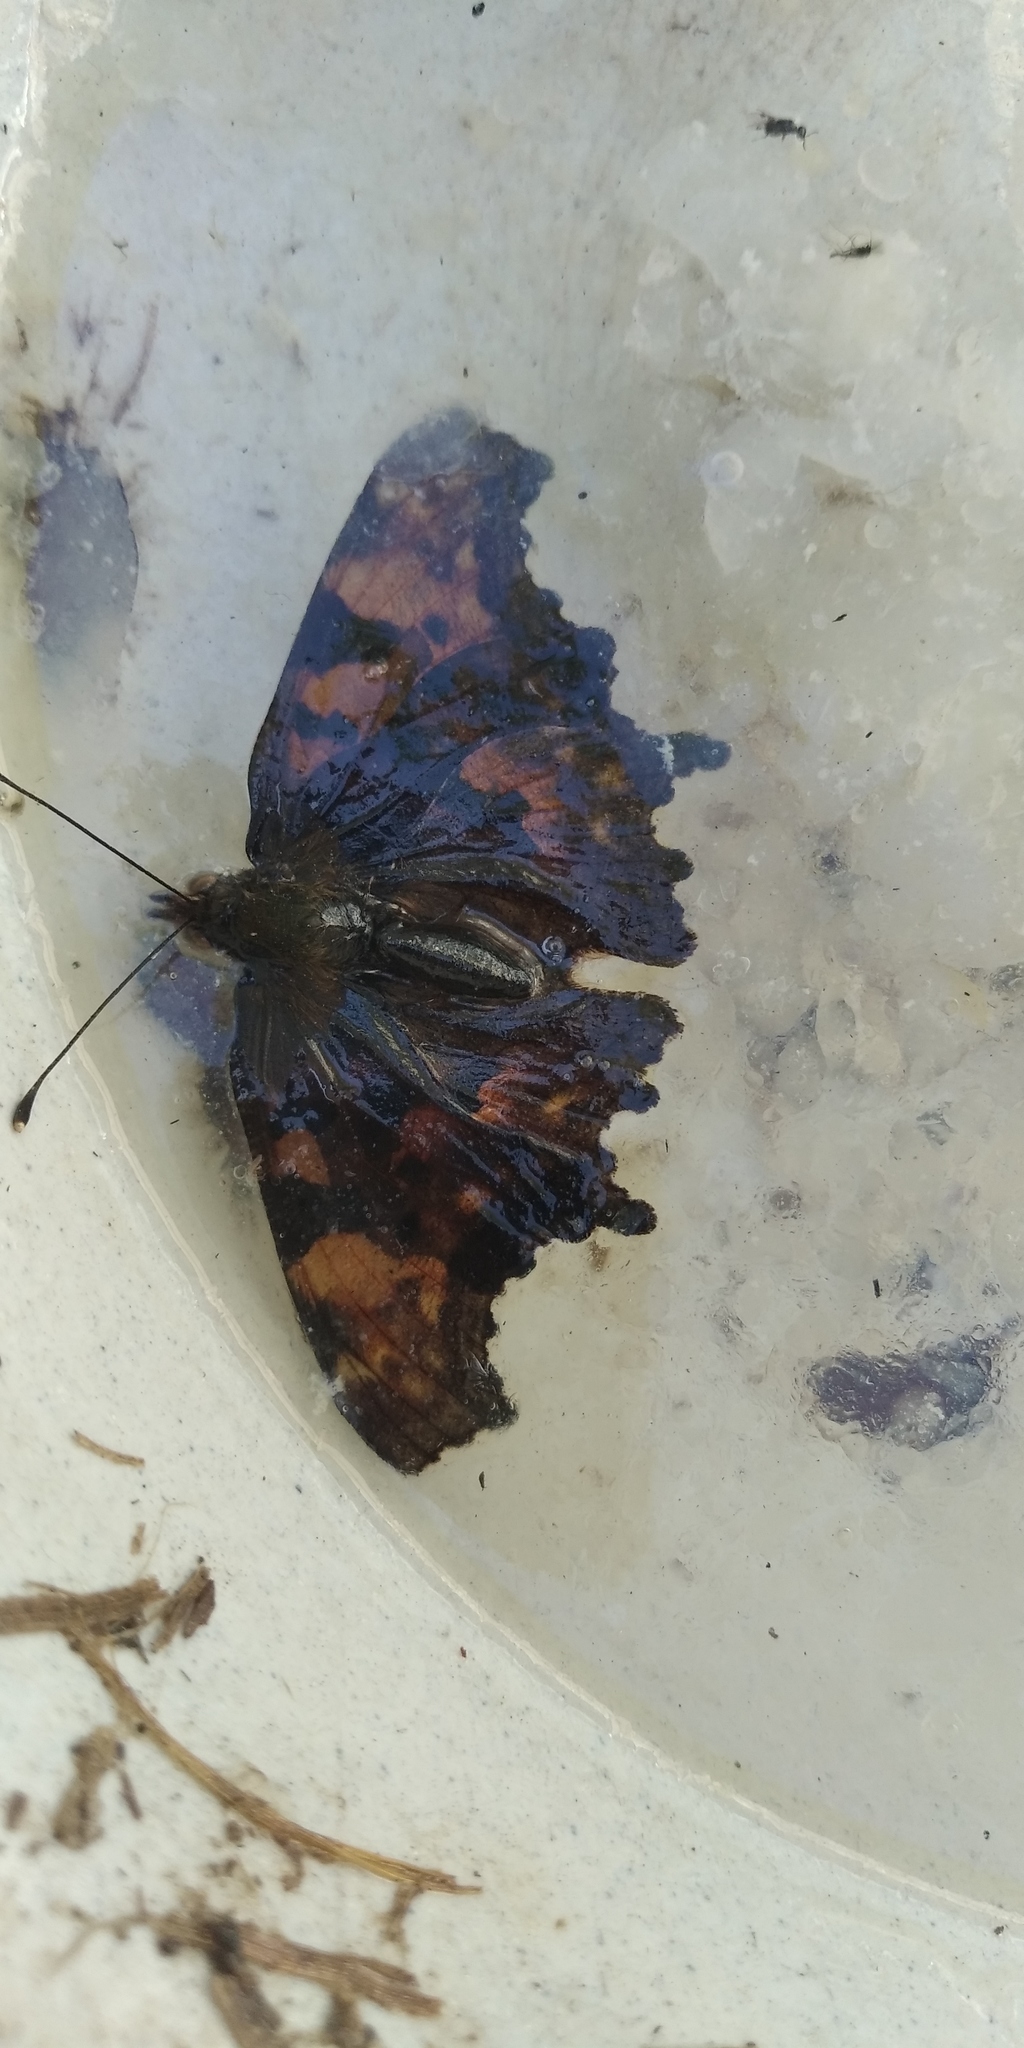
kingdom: Animalia
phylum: Arthropoda
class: Insecta
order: Lepidoptera
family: Nymphalidae
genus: Polygonia
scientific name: Polygonia c-album
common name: Comma
